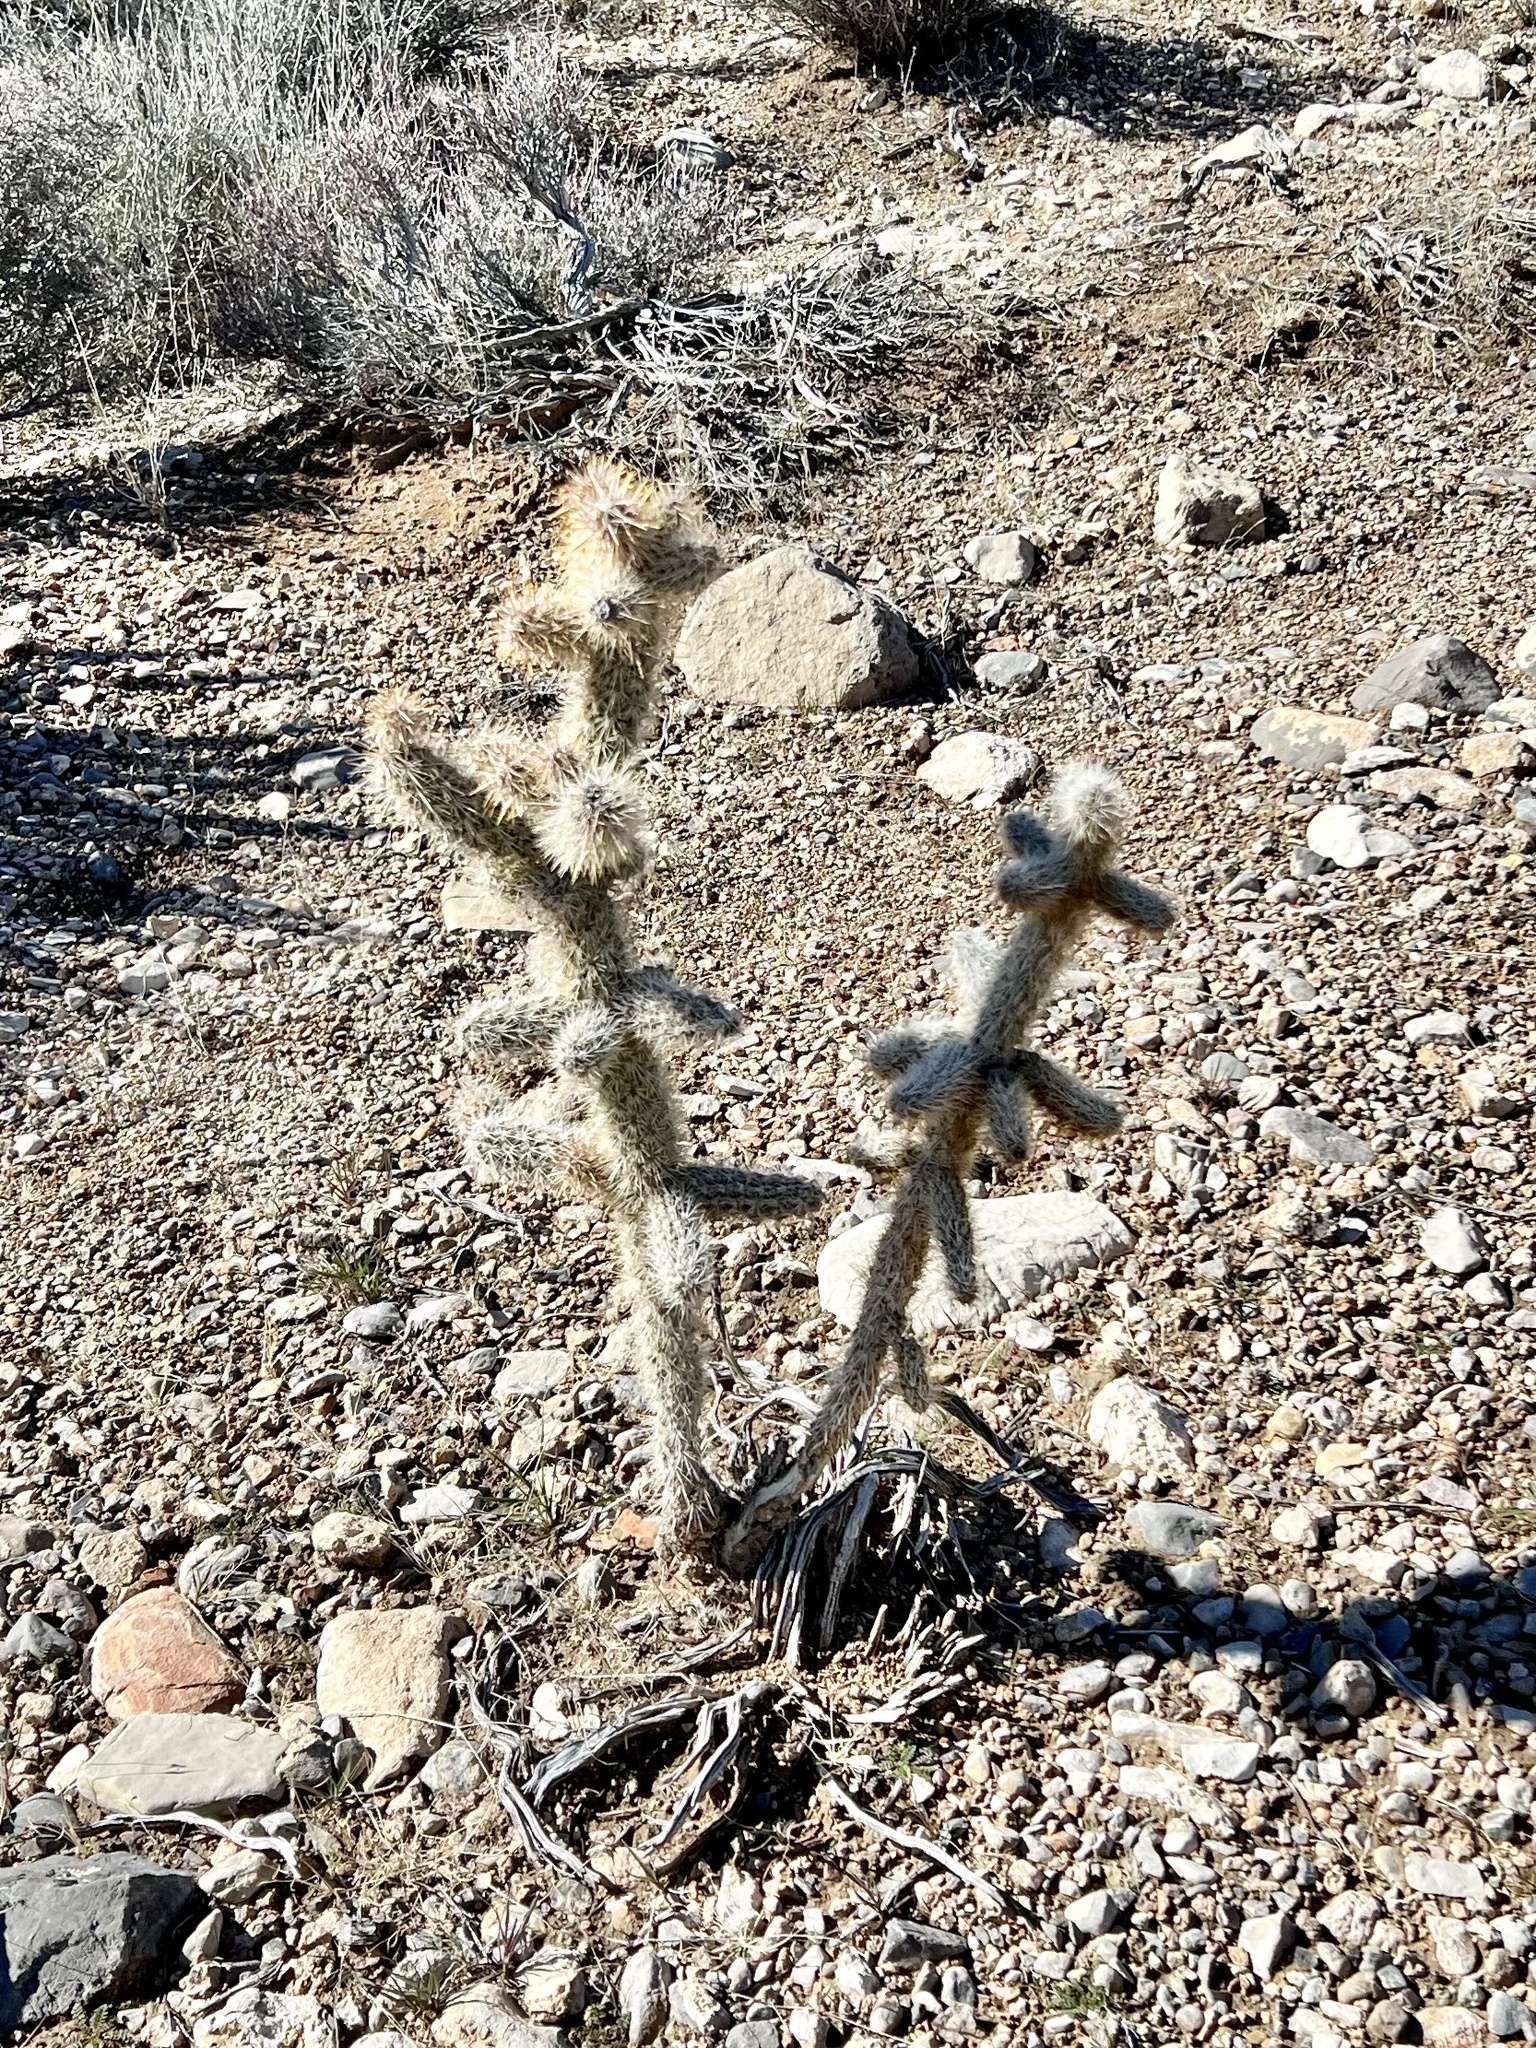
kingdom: Plantae
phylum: Tracheophyta
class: Magnoliopsida
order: Caryophyllales
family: Cactaceae
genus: Cylindropuntia
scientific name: Cylindropuntia echinocarpa
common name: Ground cholla
